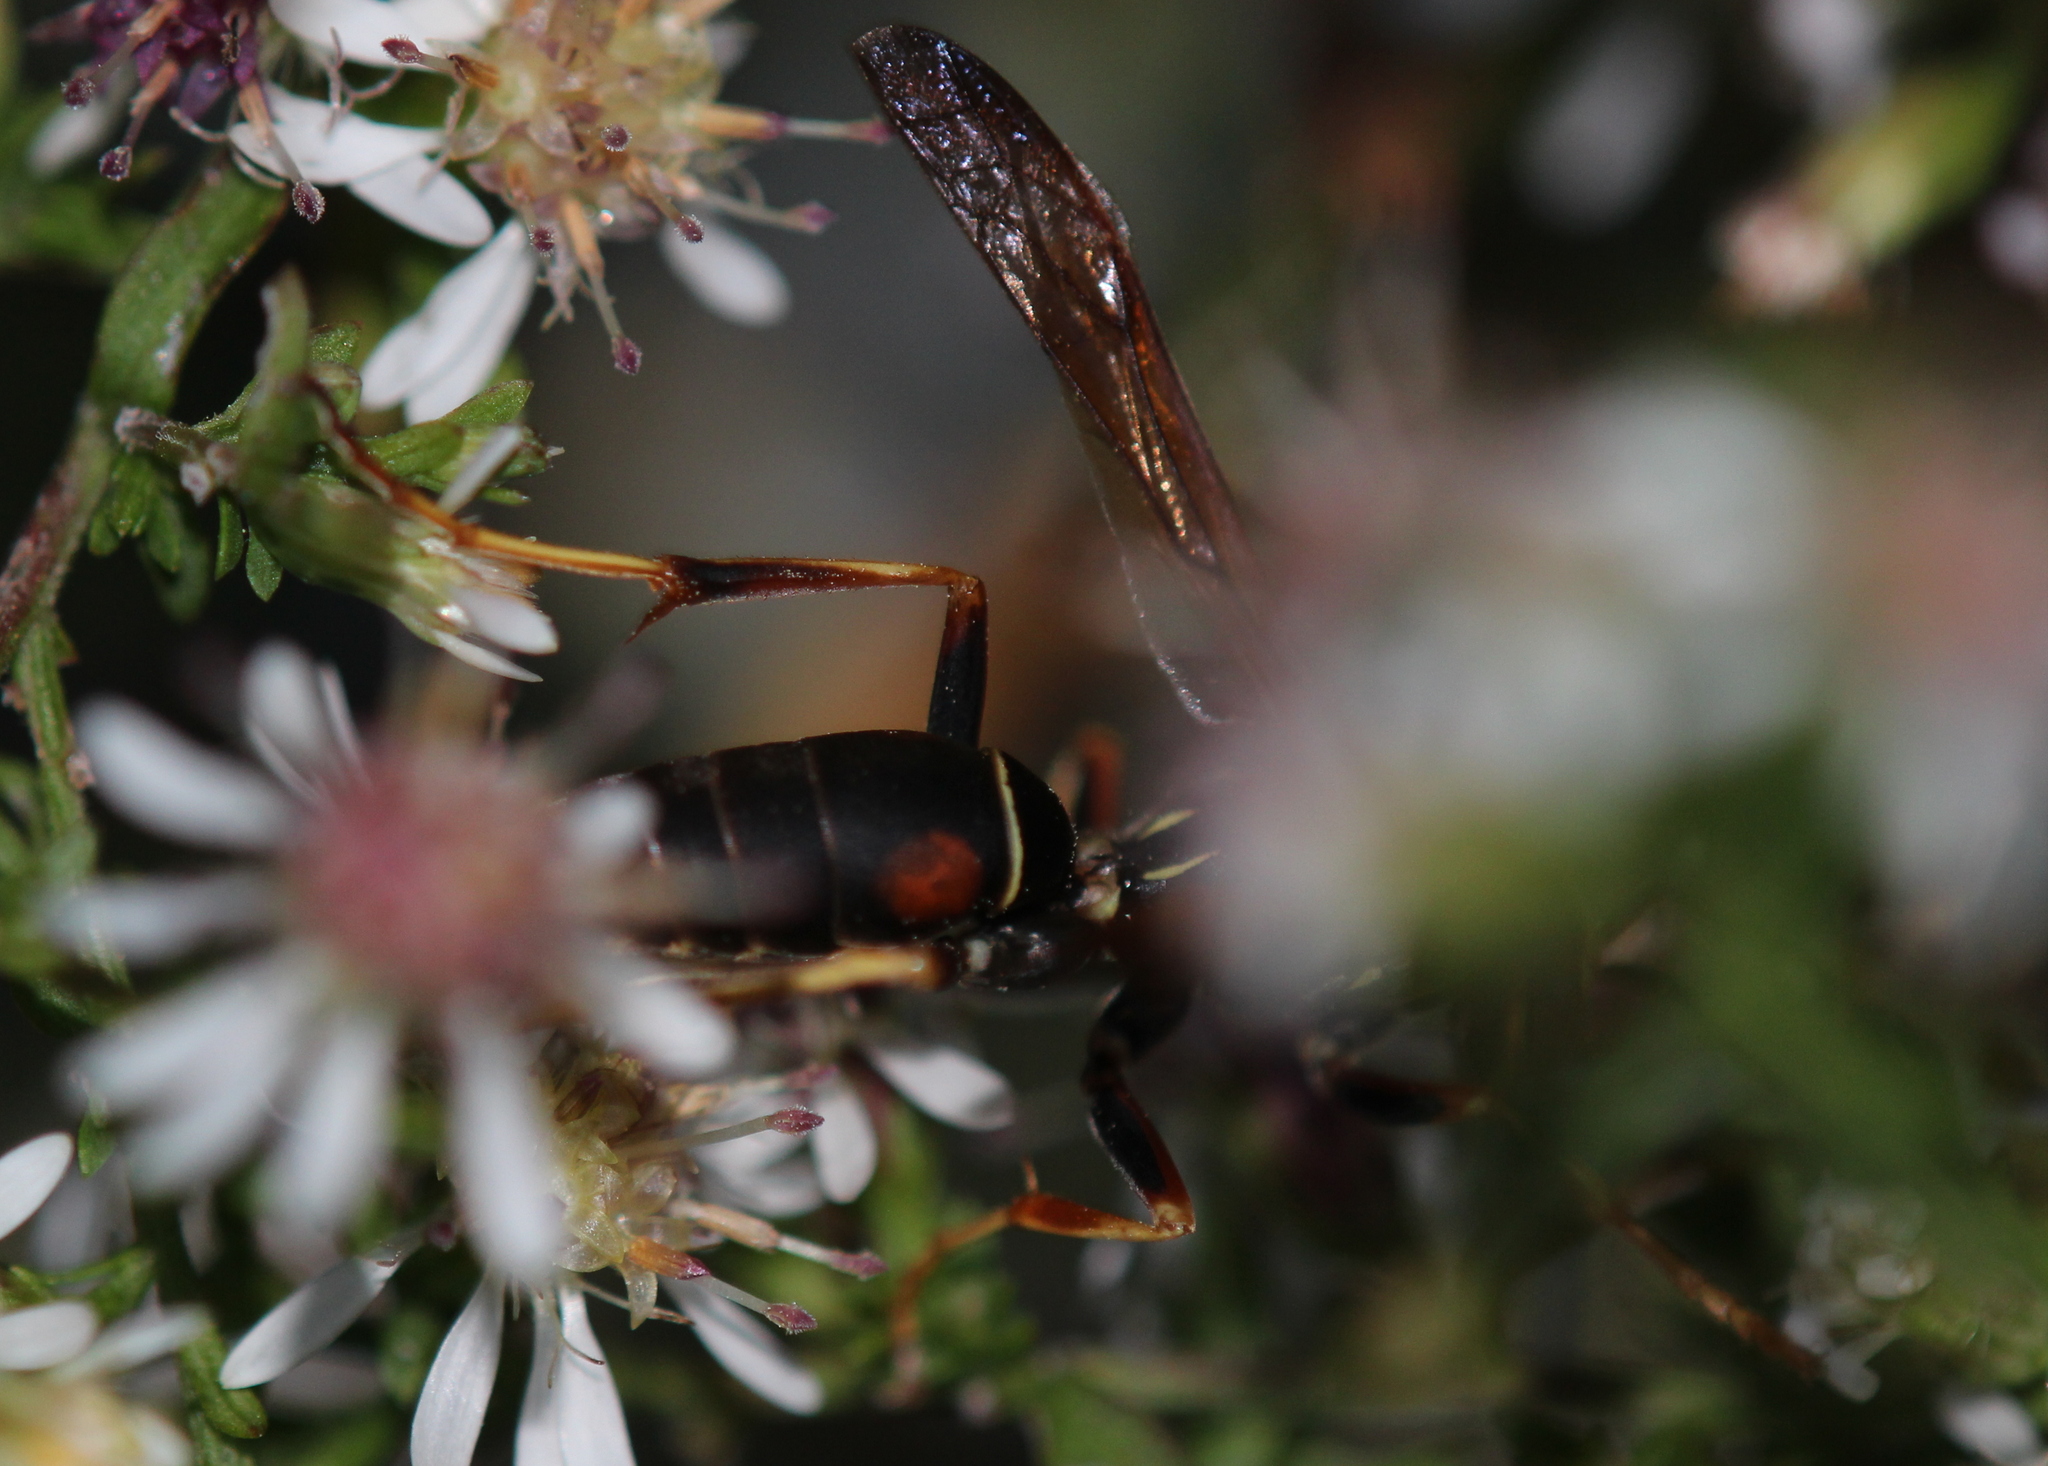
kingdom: Animalia
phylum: Arthropoda
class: Insecta
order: Hymenoptera
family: Eumenidae
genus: Polistes
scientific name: Polistes fuscatus
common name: Dark paper wasp
